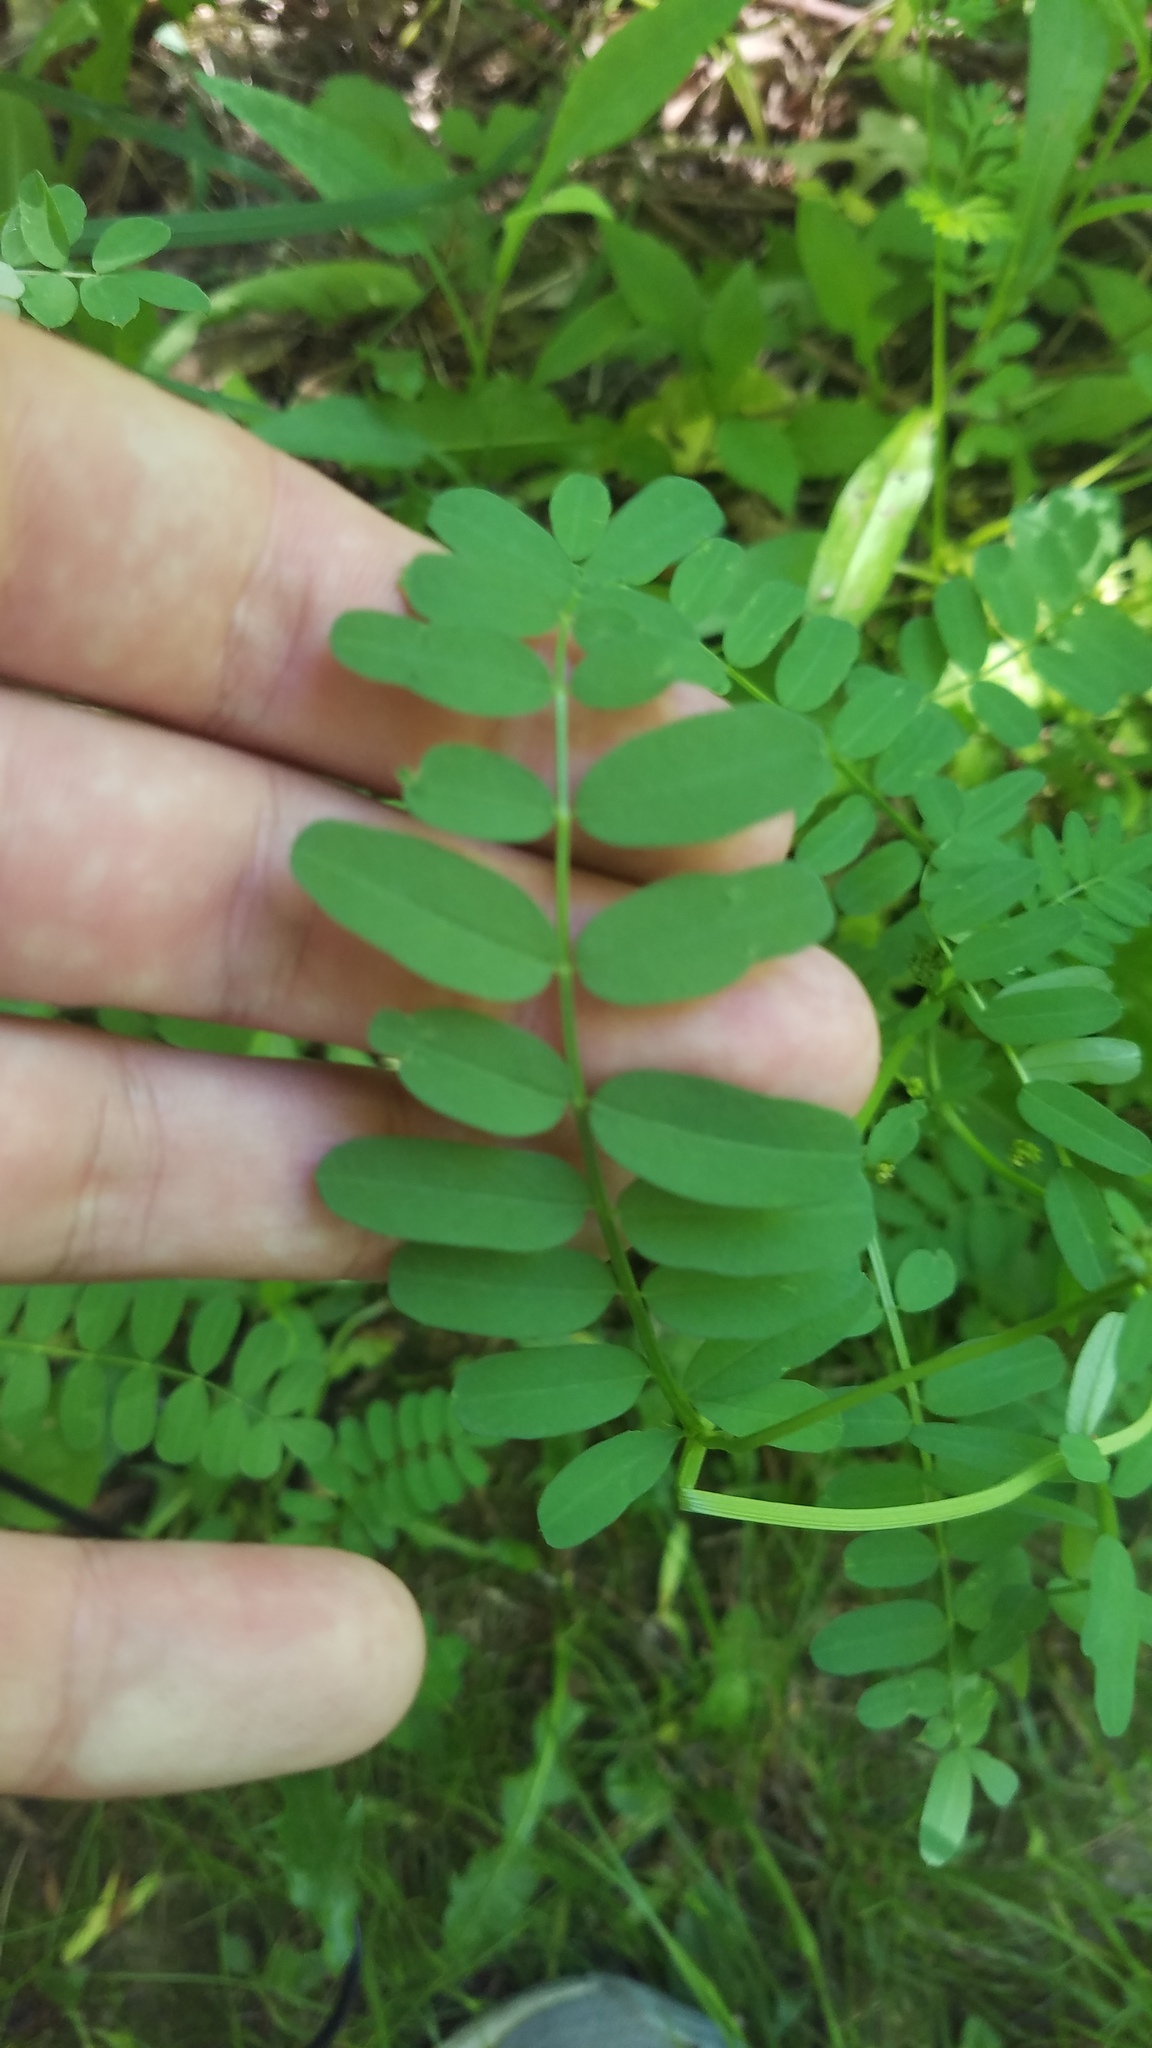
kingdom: Plantae
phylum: Tracheophyta
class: Magnoliopsida
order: Fabales
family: Fabaceae
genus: Coronilla
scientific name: Coronilla varia
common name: Crownvetch
